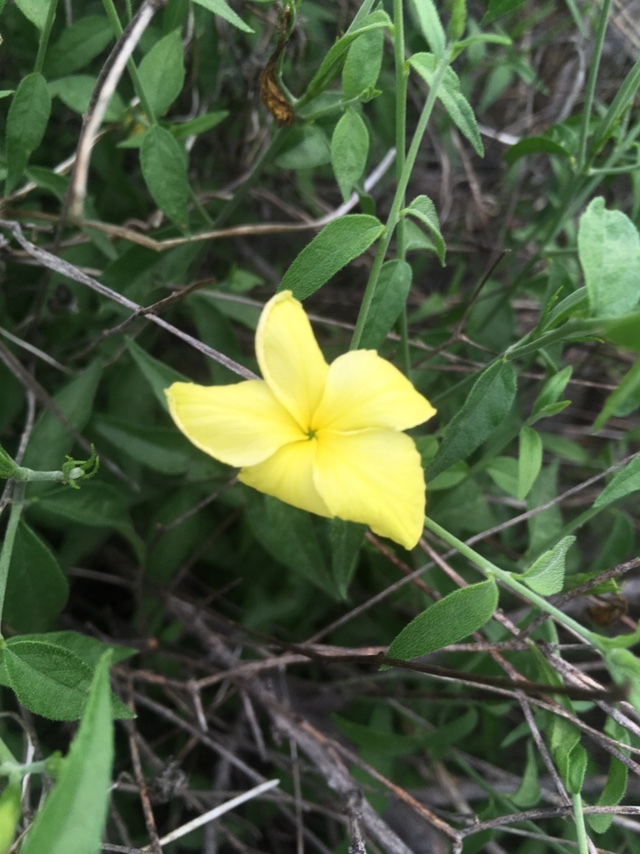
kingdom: Plantae
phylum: Tracheophyta
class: Magnoliopsida
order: Gentianales
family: Apocynaceae
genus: Haplophyton
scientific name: Haplophyton crooksii
